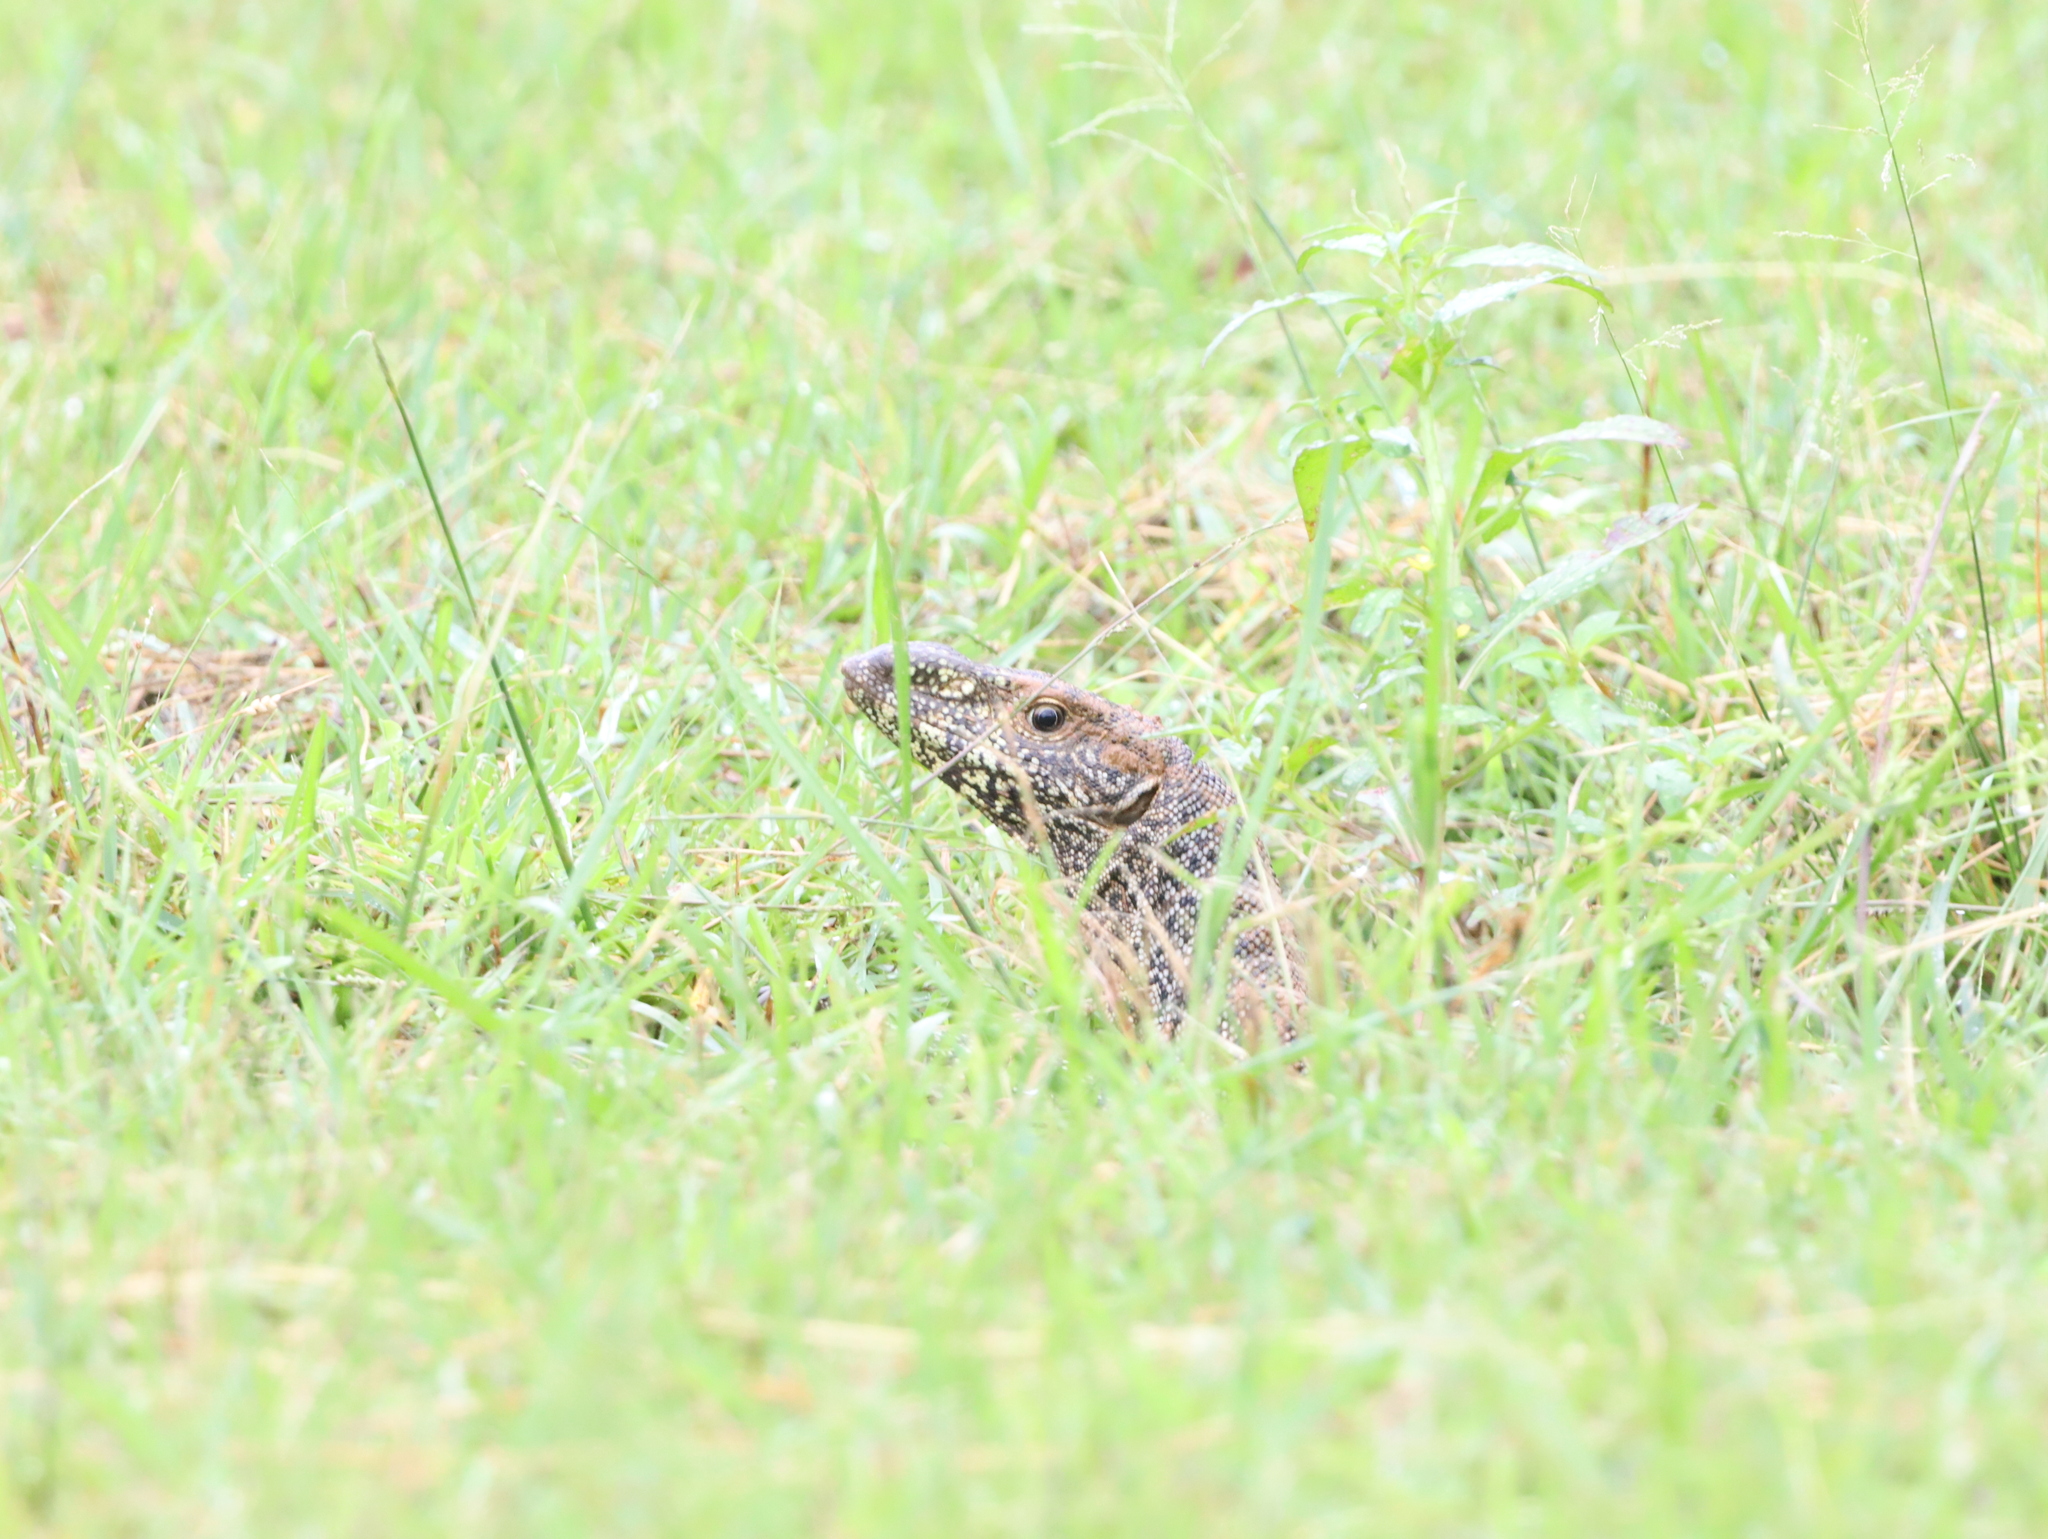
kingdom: Animalia
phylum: Chordata
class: Squamata
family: Varanidae
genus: Varanus
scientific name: Varanus bengalensis
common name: Bengal monitor
